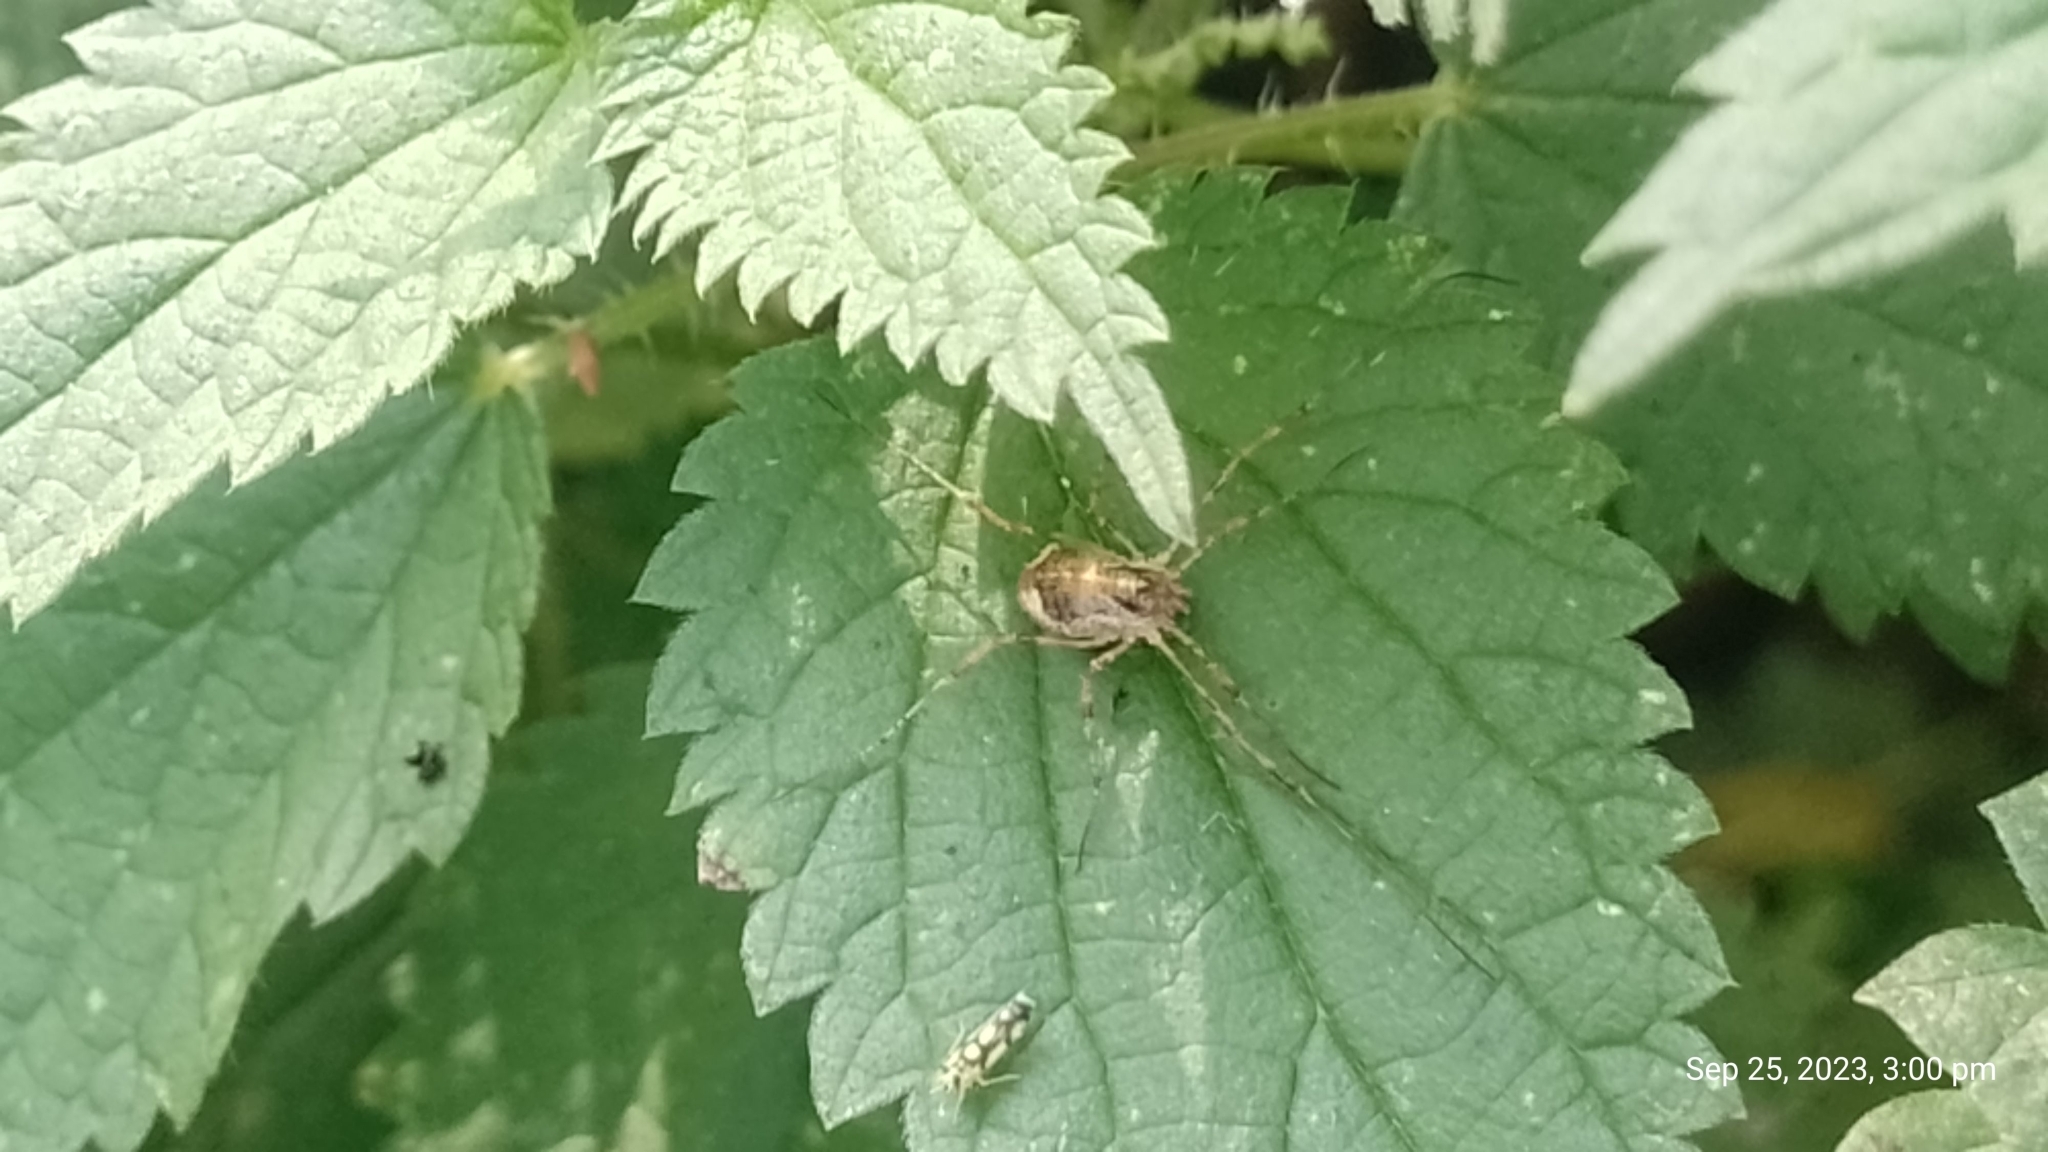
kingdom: Animalia
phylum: Arthropoda
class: Arachnida
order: Opiliones
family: Phalangiidae
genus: Paroligolophus
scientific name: Paroligolophus agrestis
